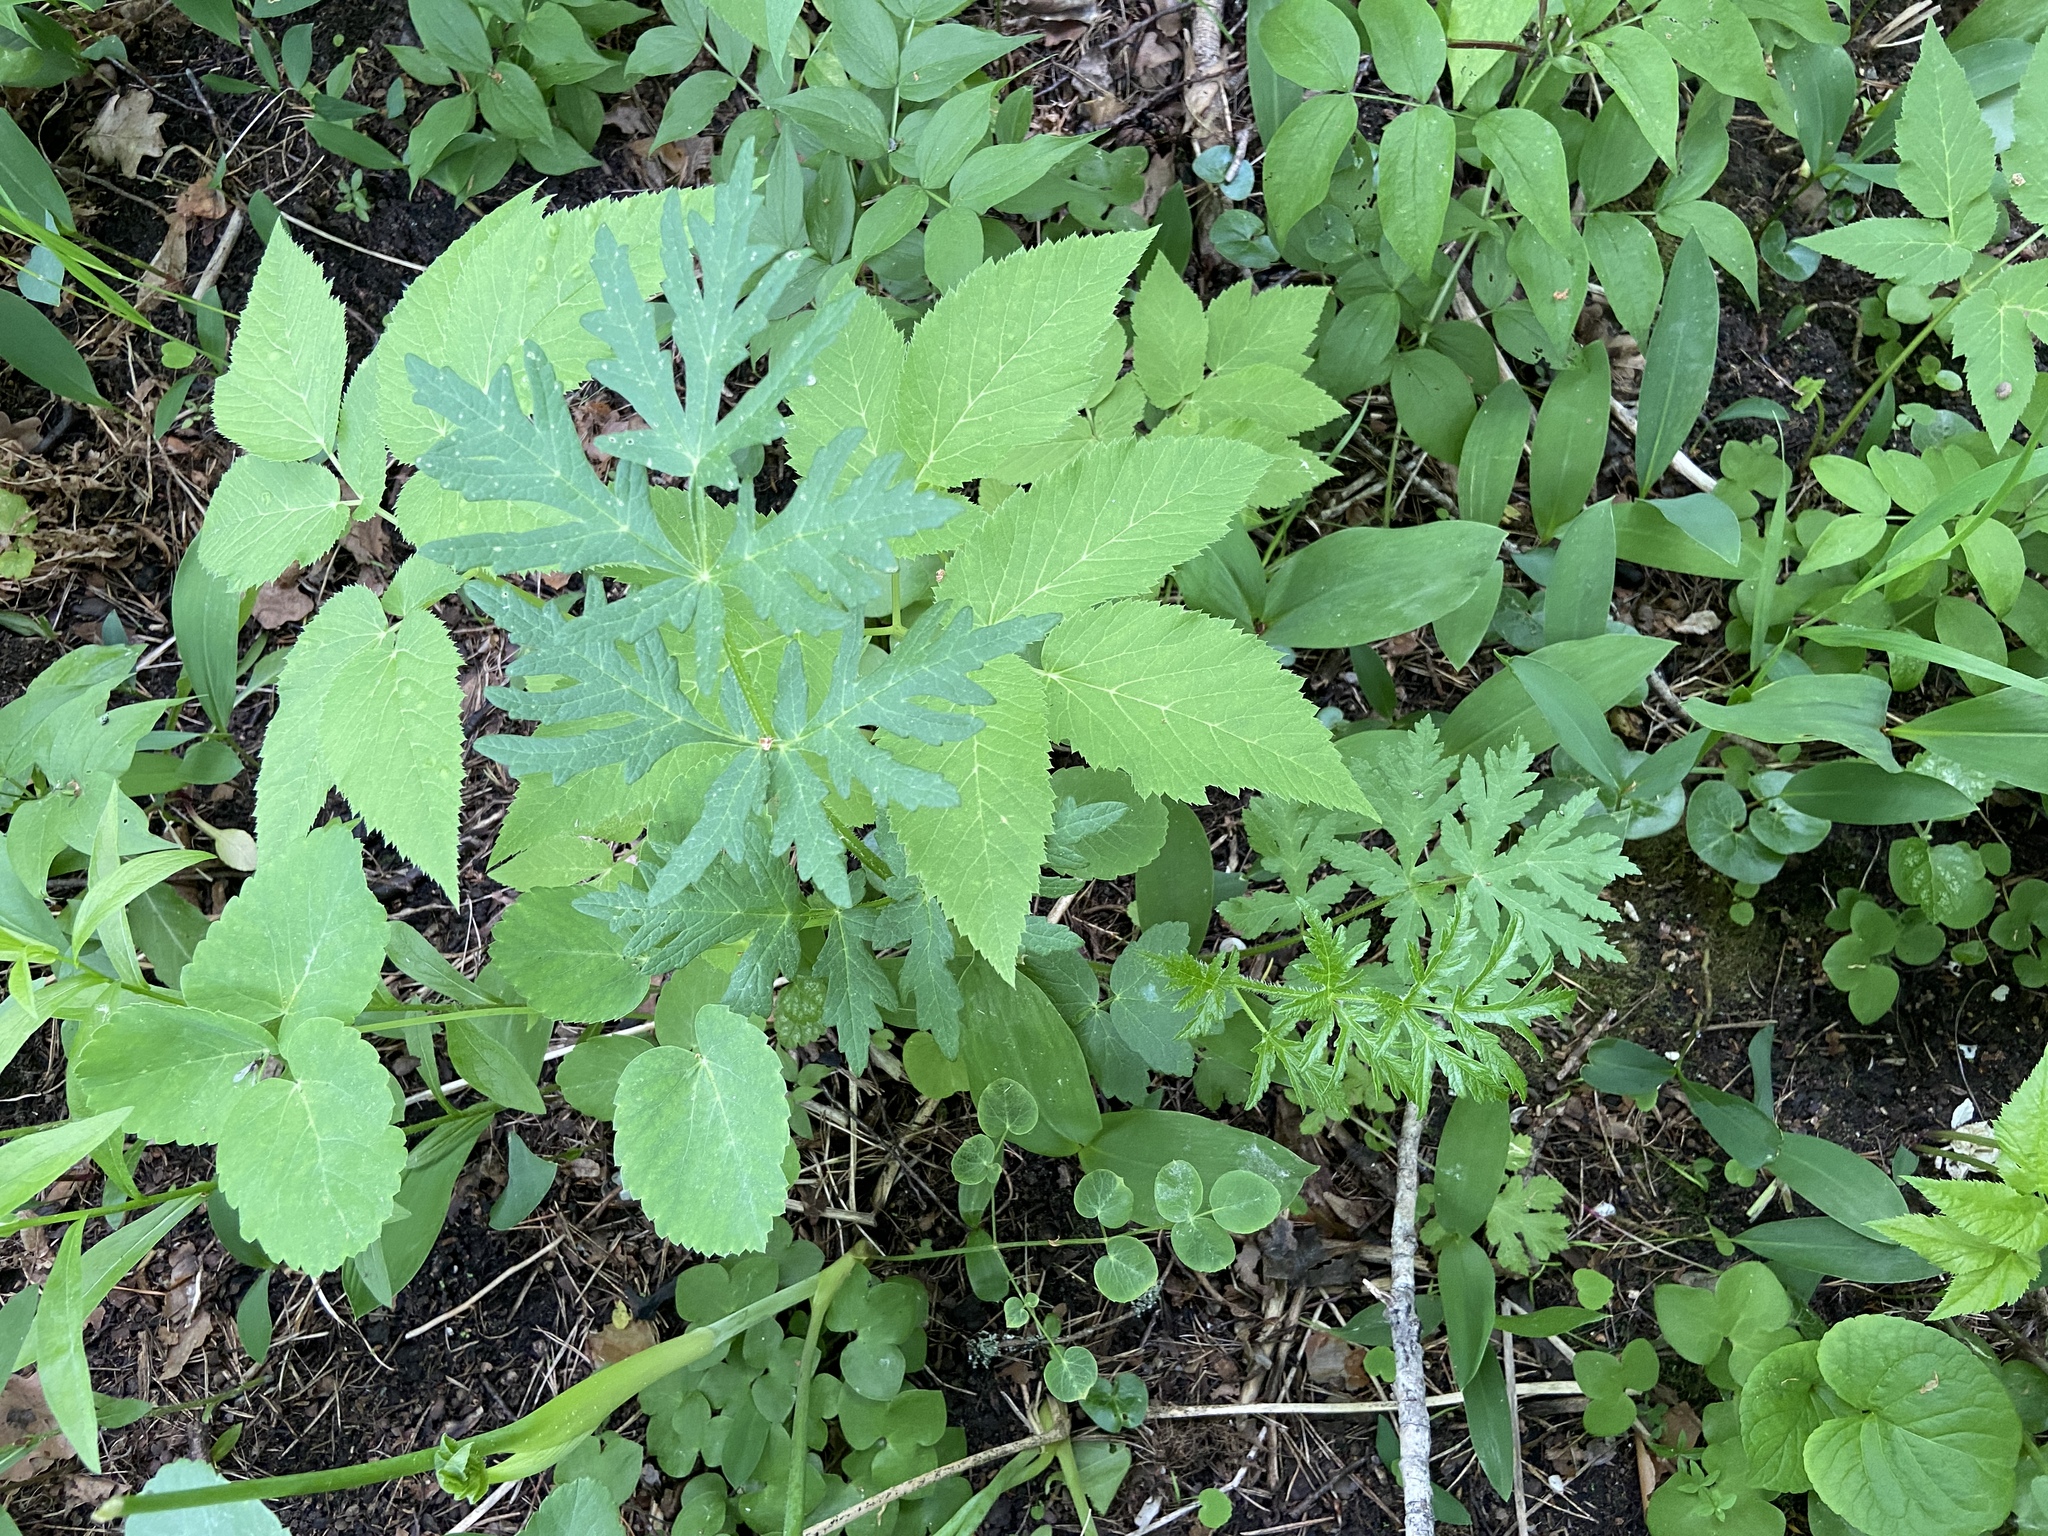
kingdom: Plantae
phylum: Tracheophyta
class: Magnoliopsida
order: Apiales
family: Apiaceae
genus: Heracleum
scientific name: Heracleum sphondylium
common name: Hogweed
